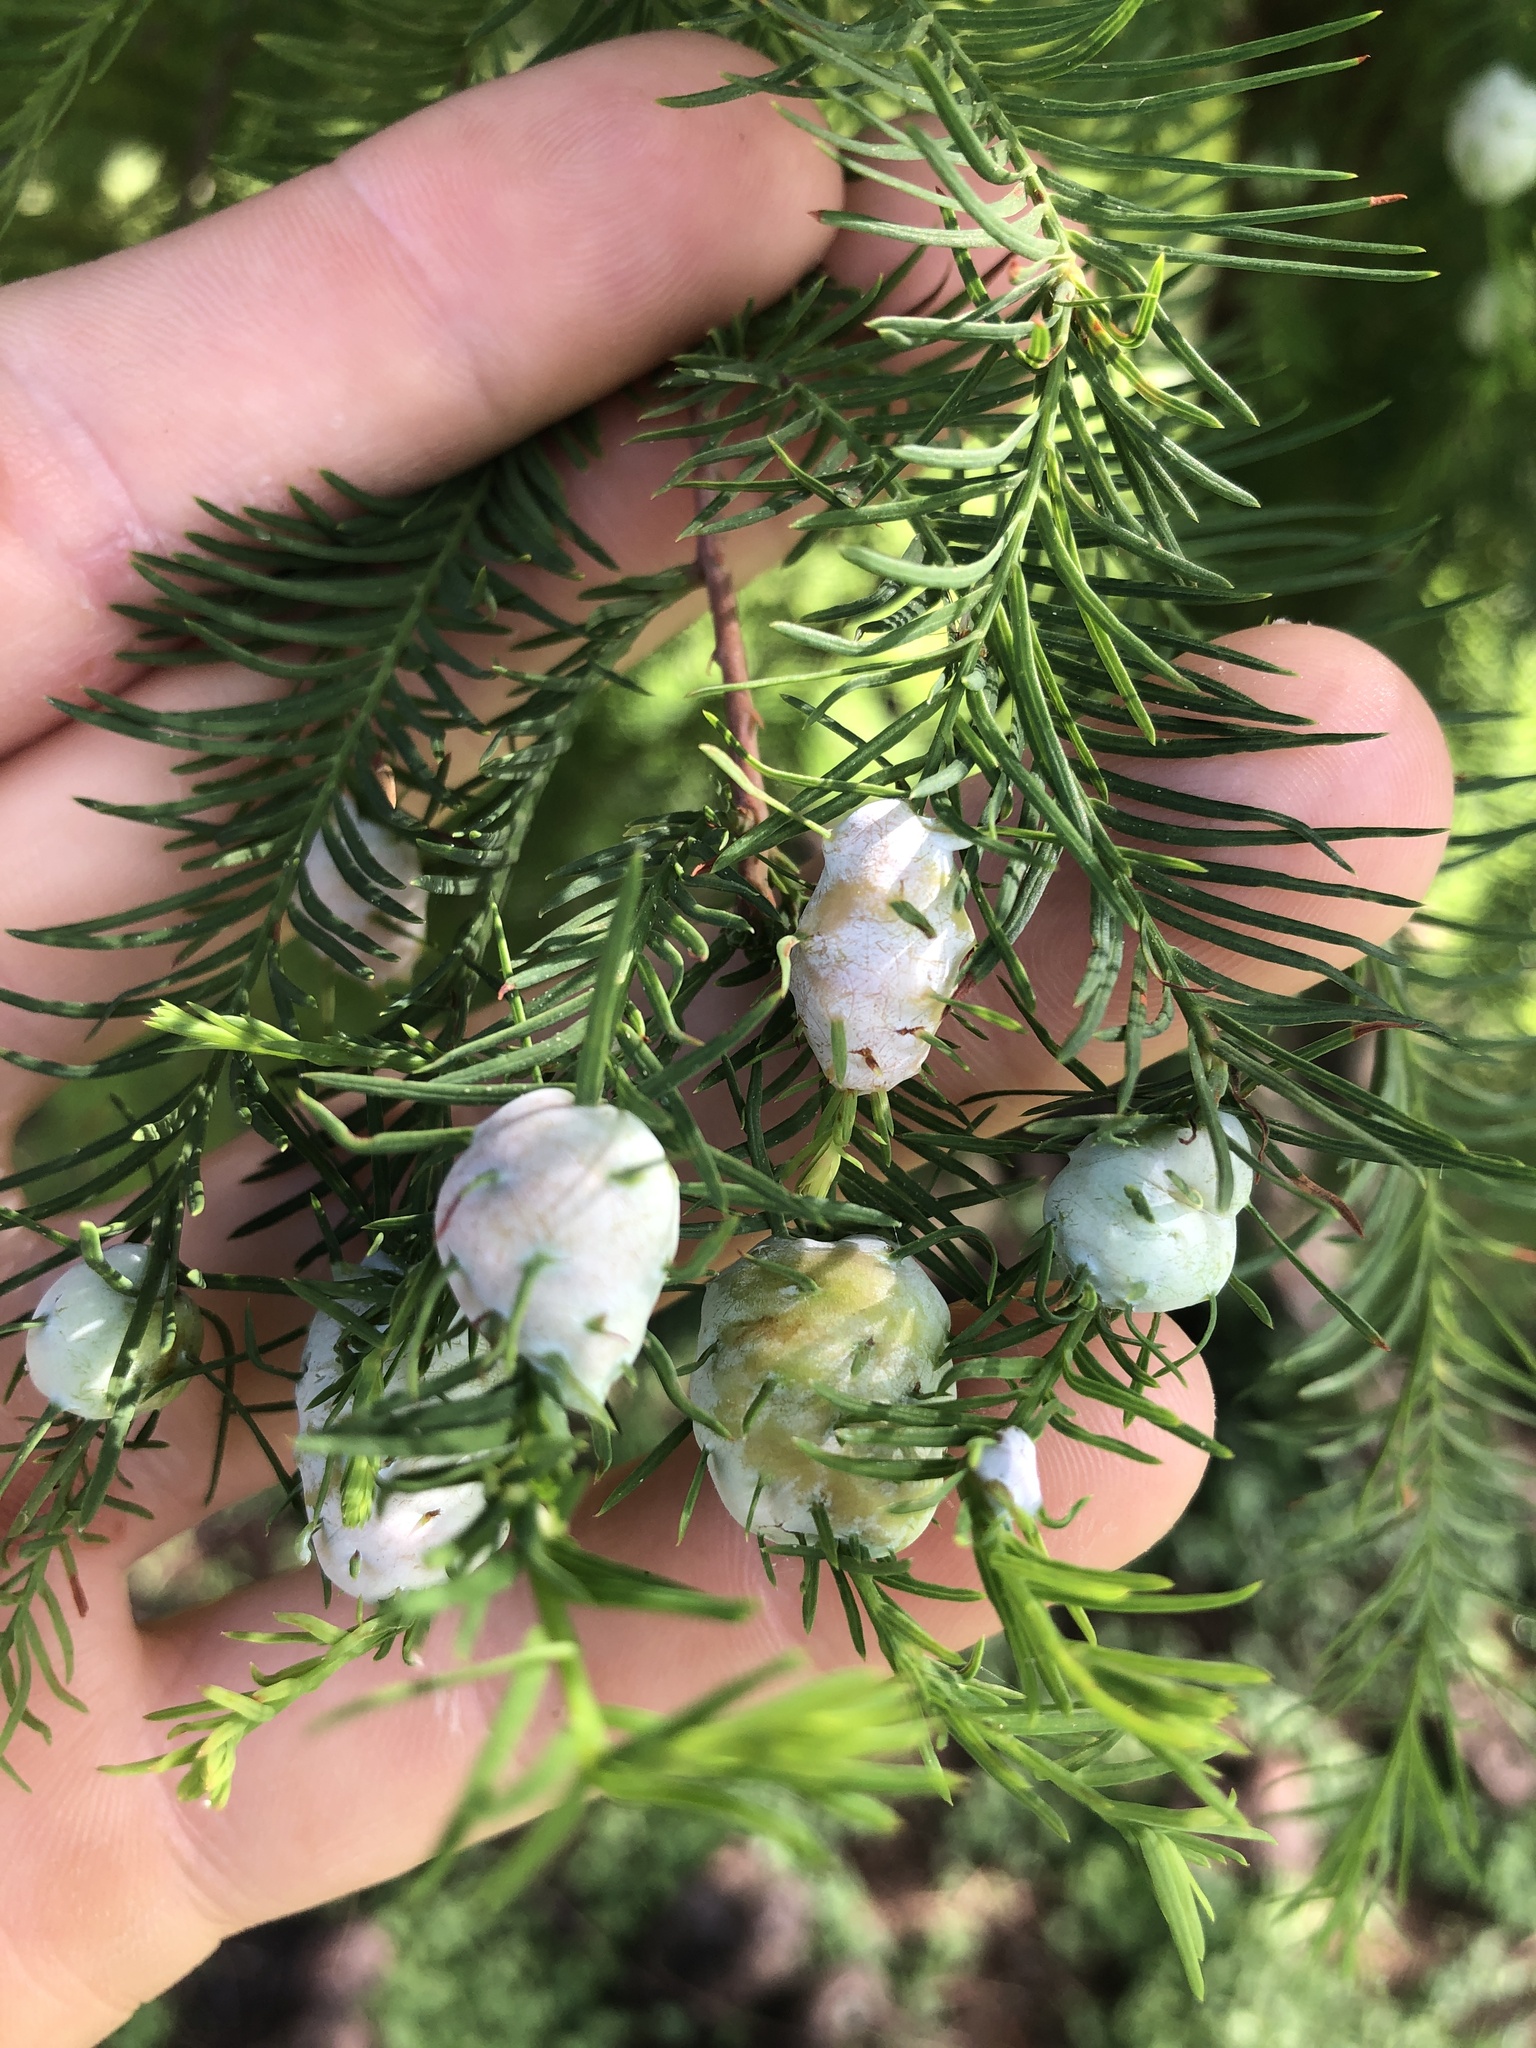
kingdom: Animalia
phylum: Arthropoda
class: Insecta
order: Diptera
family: Cecidomyiidae
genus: Taxodiomyia
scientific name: Taxodiomyia cupressiananassa
